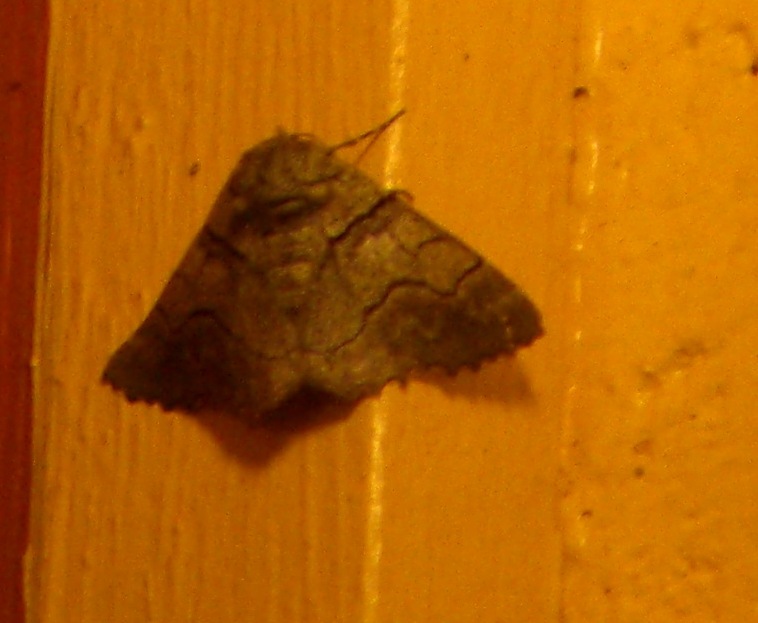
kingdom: Animalia
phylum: Arthropoda
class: Insecta
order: Lepidoptera
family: Geometridae
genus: Hypobapta
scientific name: Hypobapta diffundens
